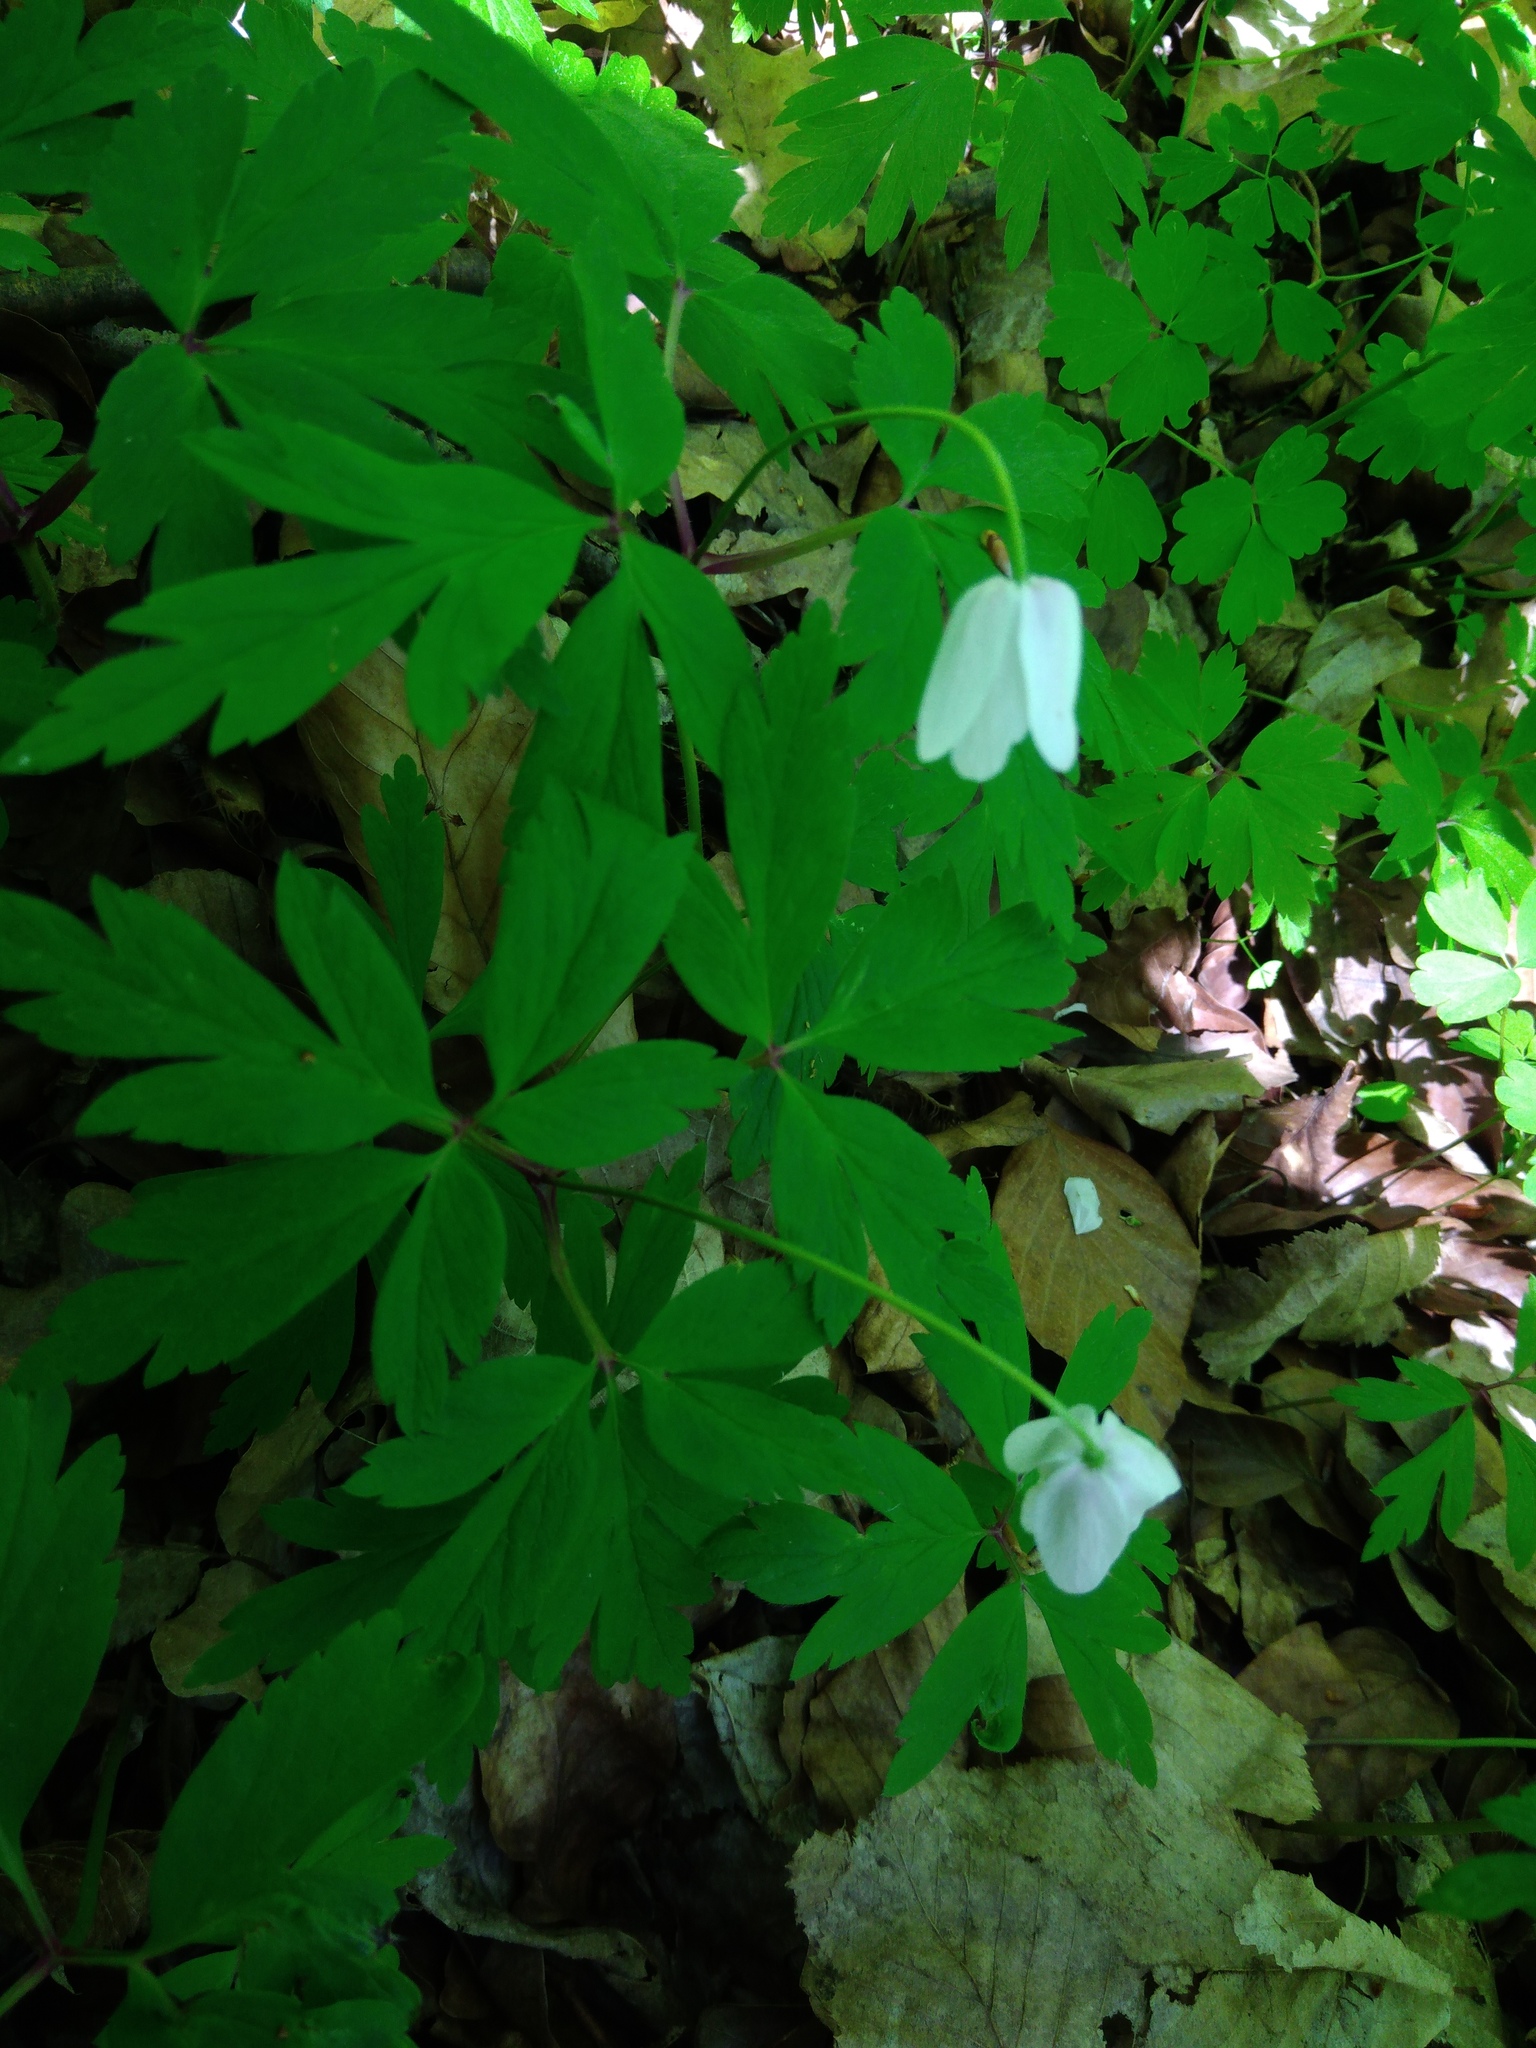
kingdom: Plantae
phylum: Tracheophyta
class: Magnoliopsida
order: Ranunculales
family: Ranunculaceae
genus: Anemone
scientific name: Anemone nemorosa
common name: Wood anemone
